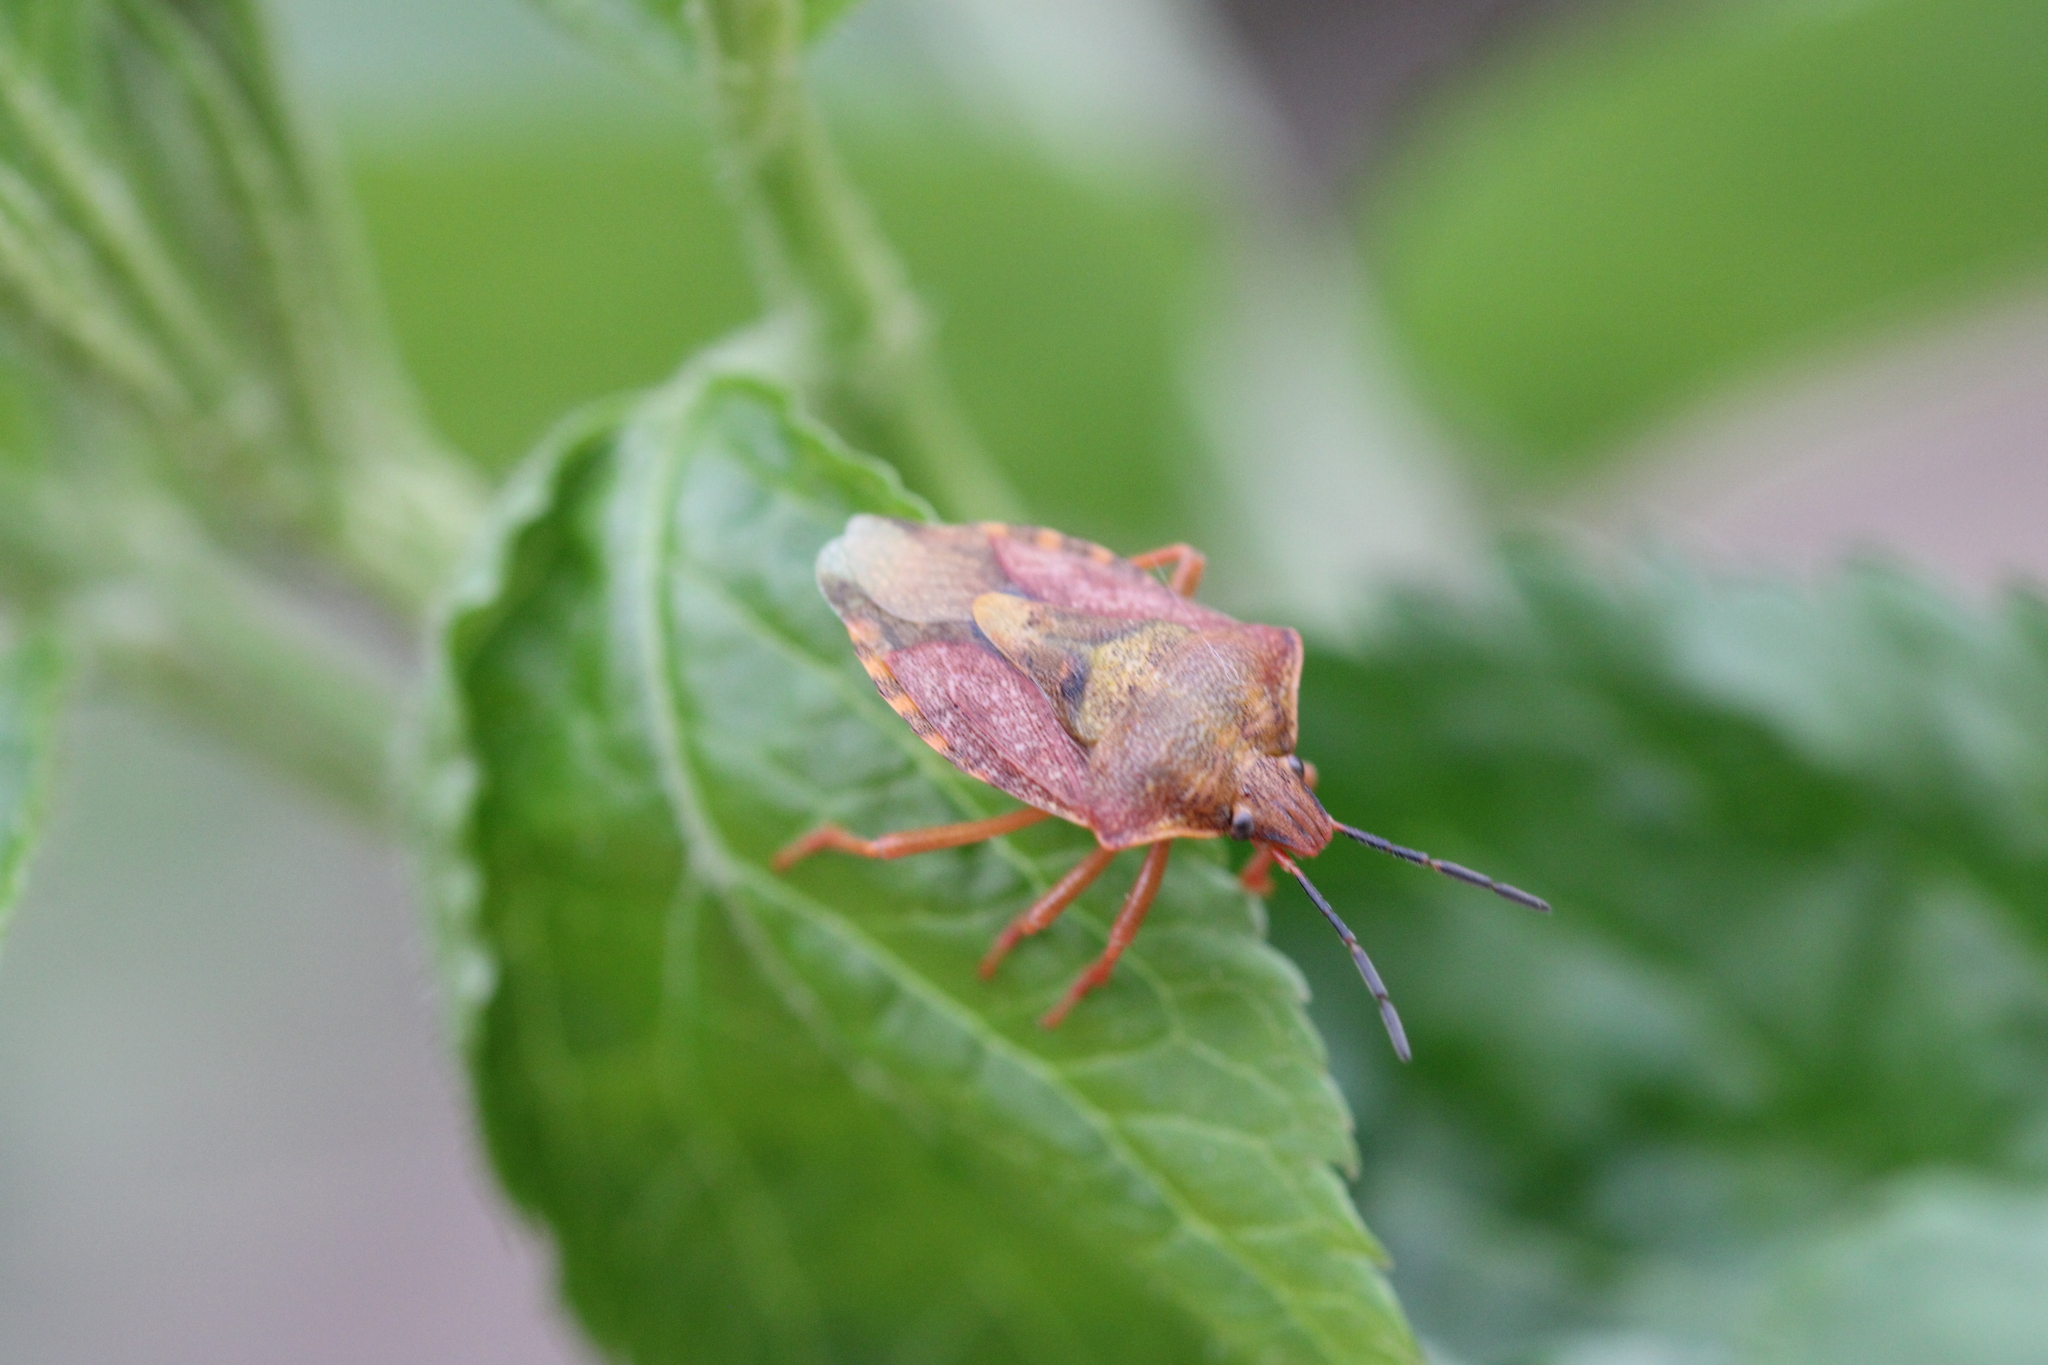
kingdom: Animalia
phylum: Arthropoda
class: Insecta
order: Hemiptera
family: Pentatomidae
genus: Carpocoris
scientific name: Carpocoris purpureipennis
